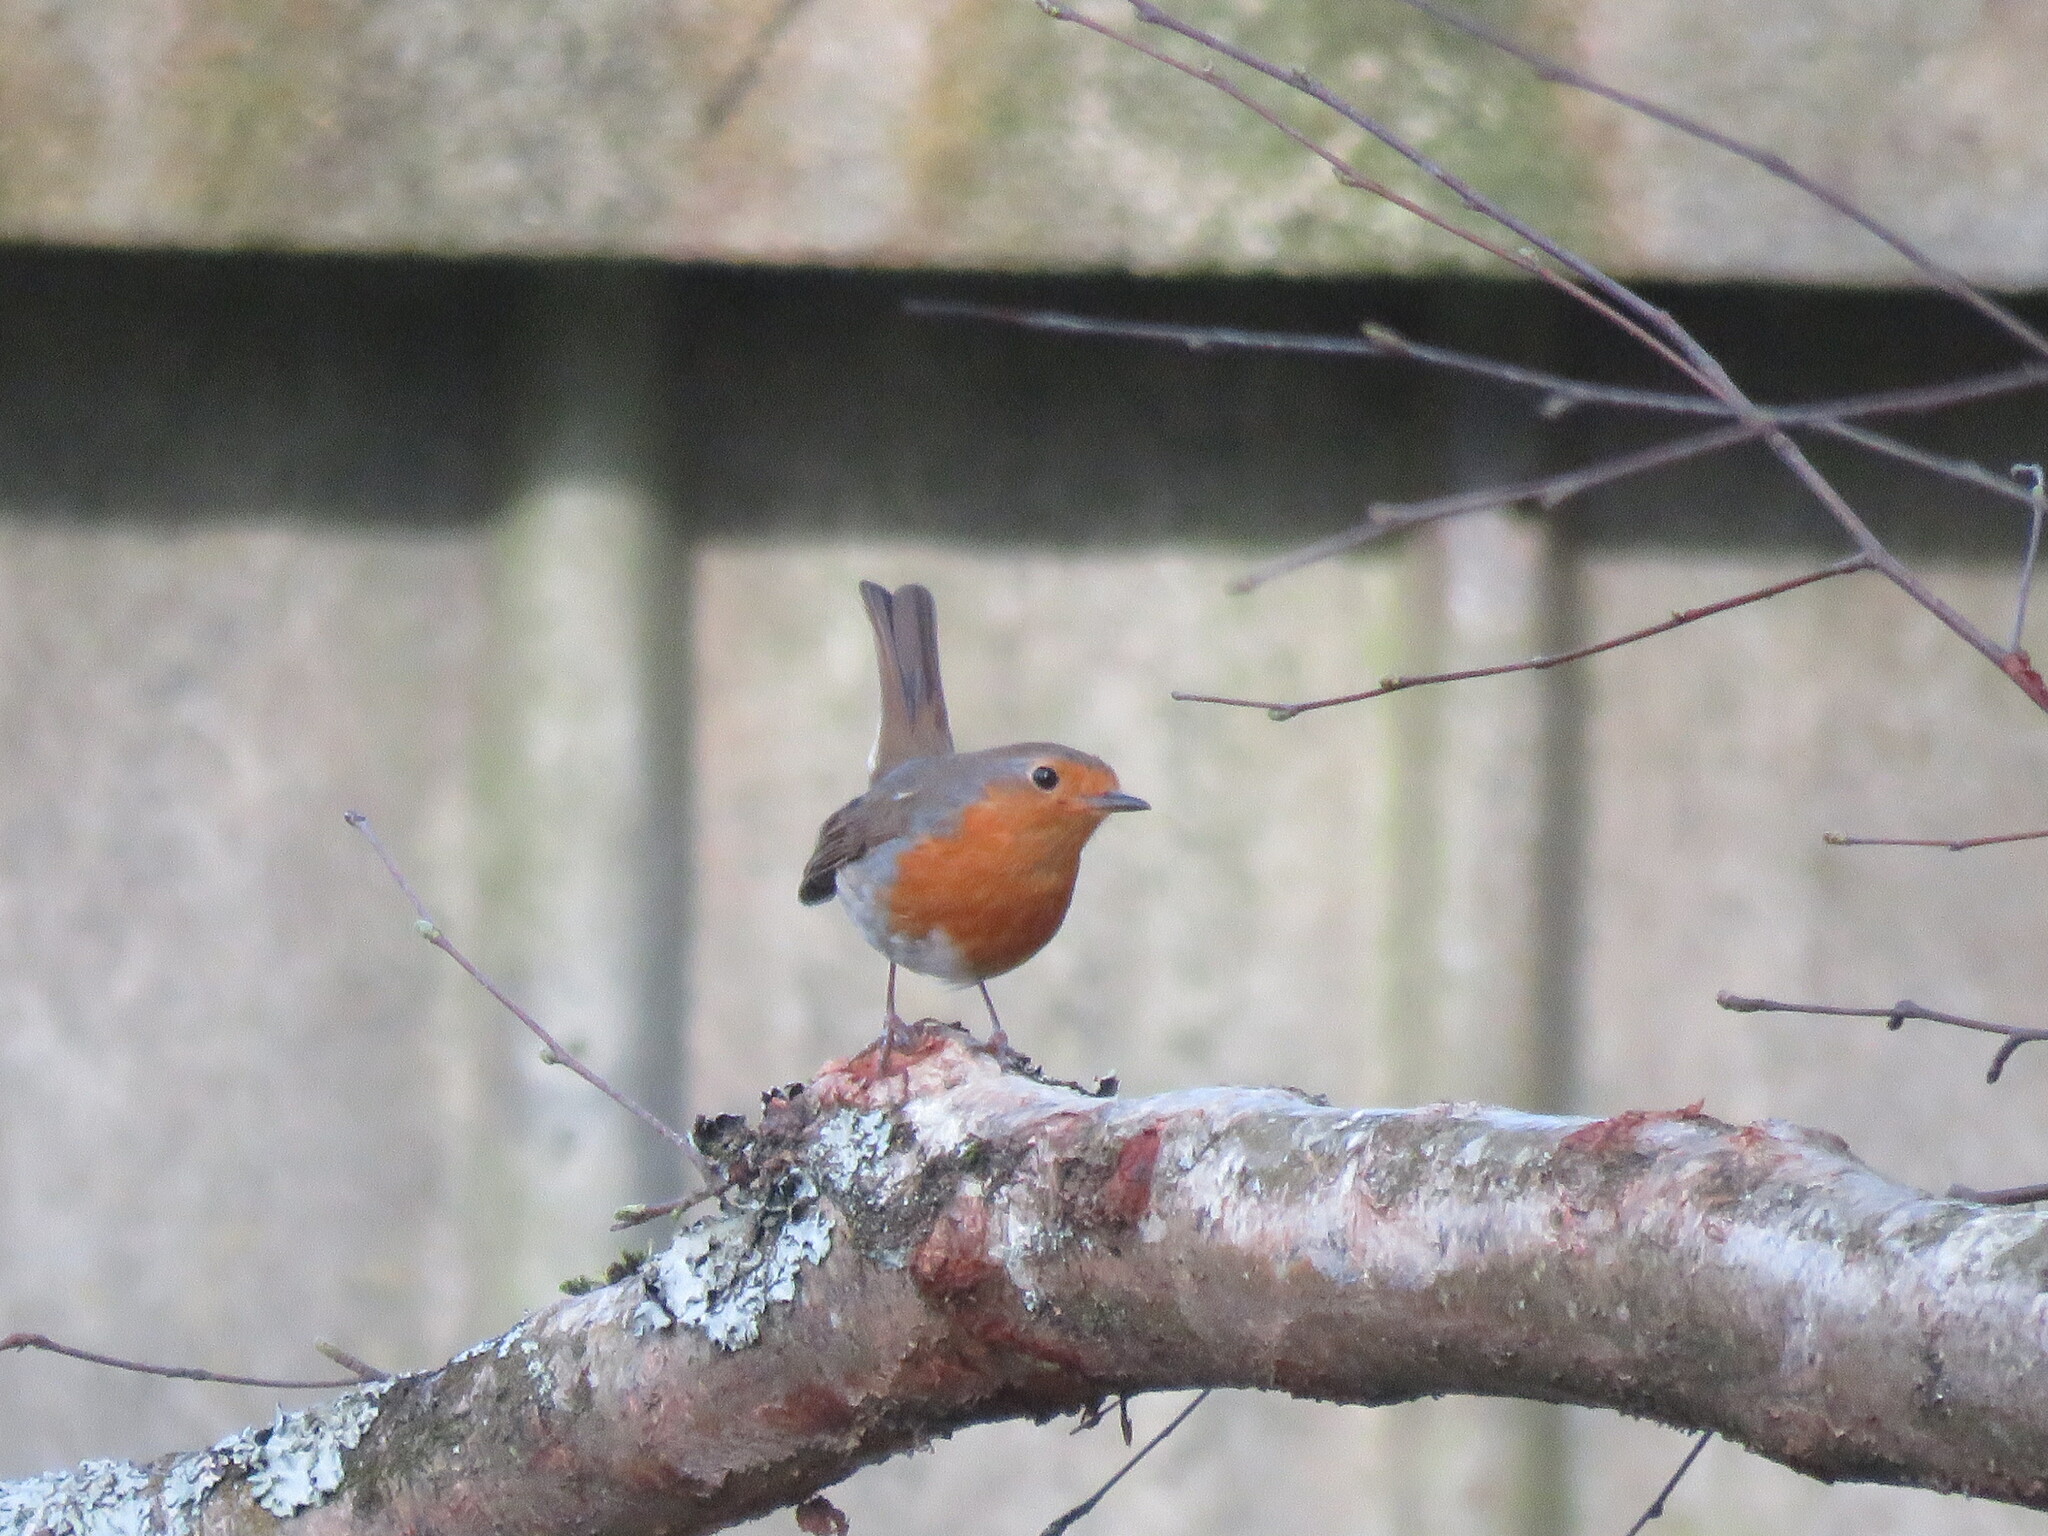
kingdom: Animalia
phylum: Chordata
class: Aves
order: Passeriformes
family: Muscicapidae
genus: Erithacus
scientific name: Erithacus rubecula
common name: European robin
